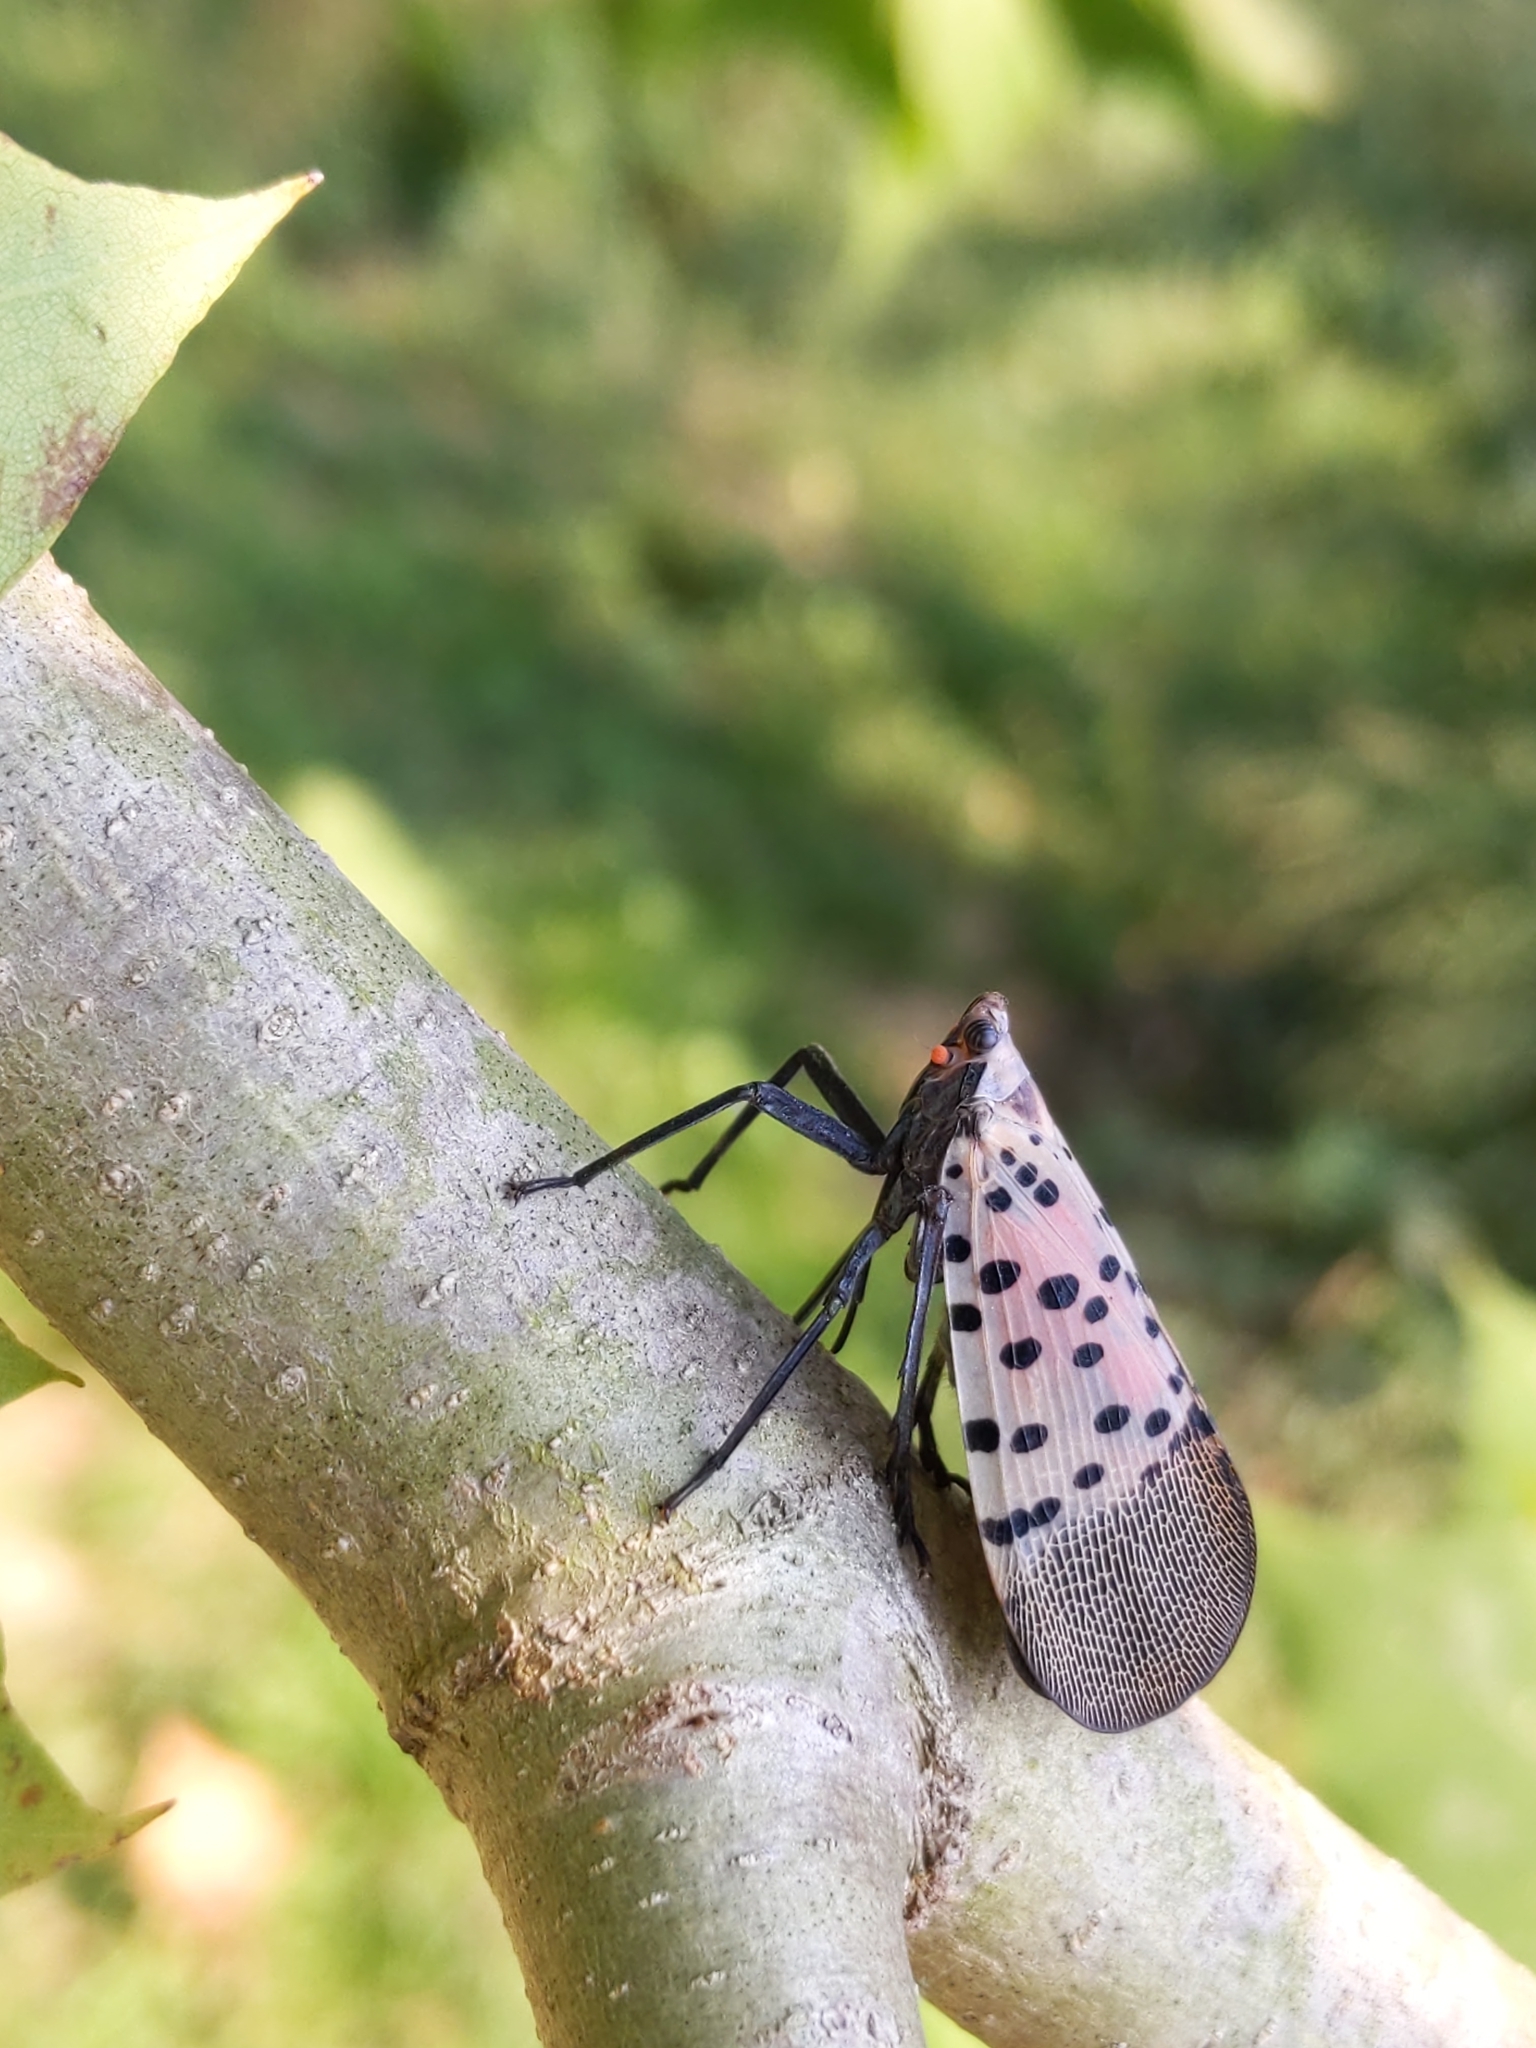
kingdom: Animalia
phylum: Arthropoda
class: Insecta
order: Hemiptera
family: Fulgoridae
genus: Lycorma
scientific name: Lycorma delicatula
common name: Spotted lanternfly
